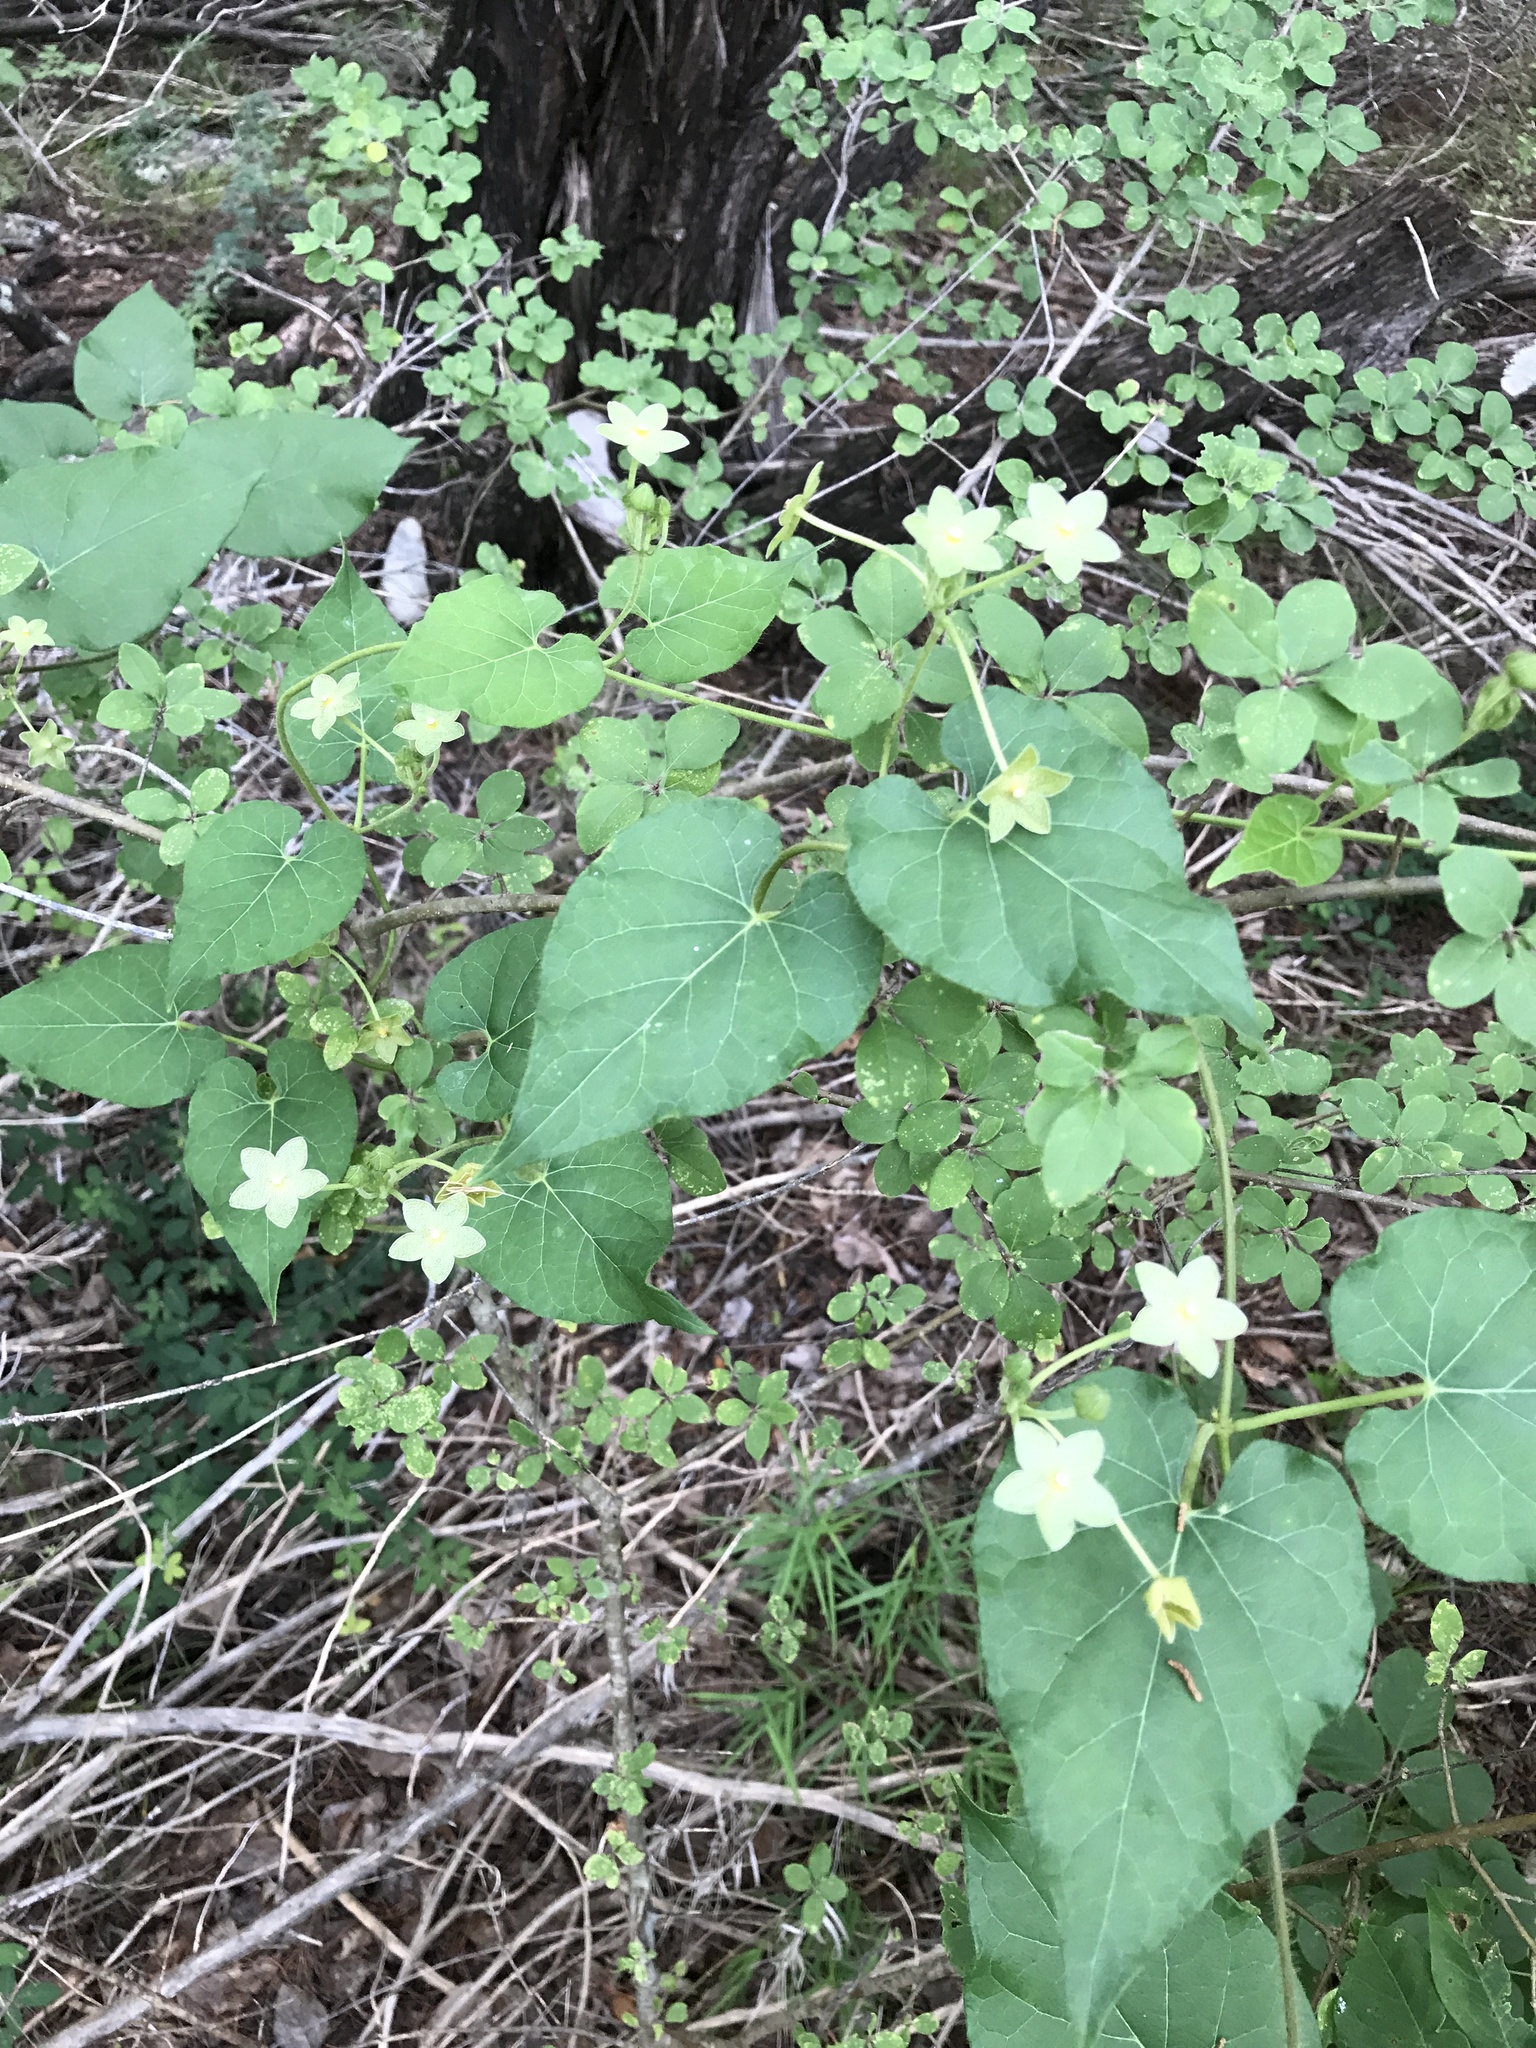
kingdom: Plantae
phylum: Tracheophyta
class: Magnoliopsida
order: Gentianales
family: Apocynaceae
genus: Dictyanthus
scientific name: Dictyanthus reticulatus
